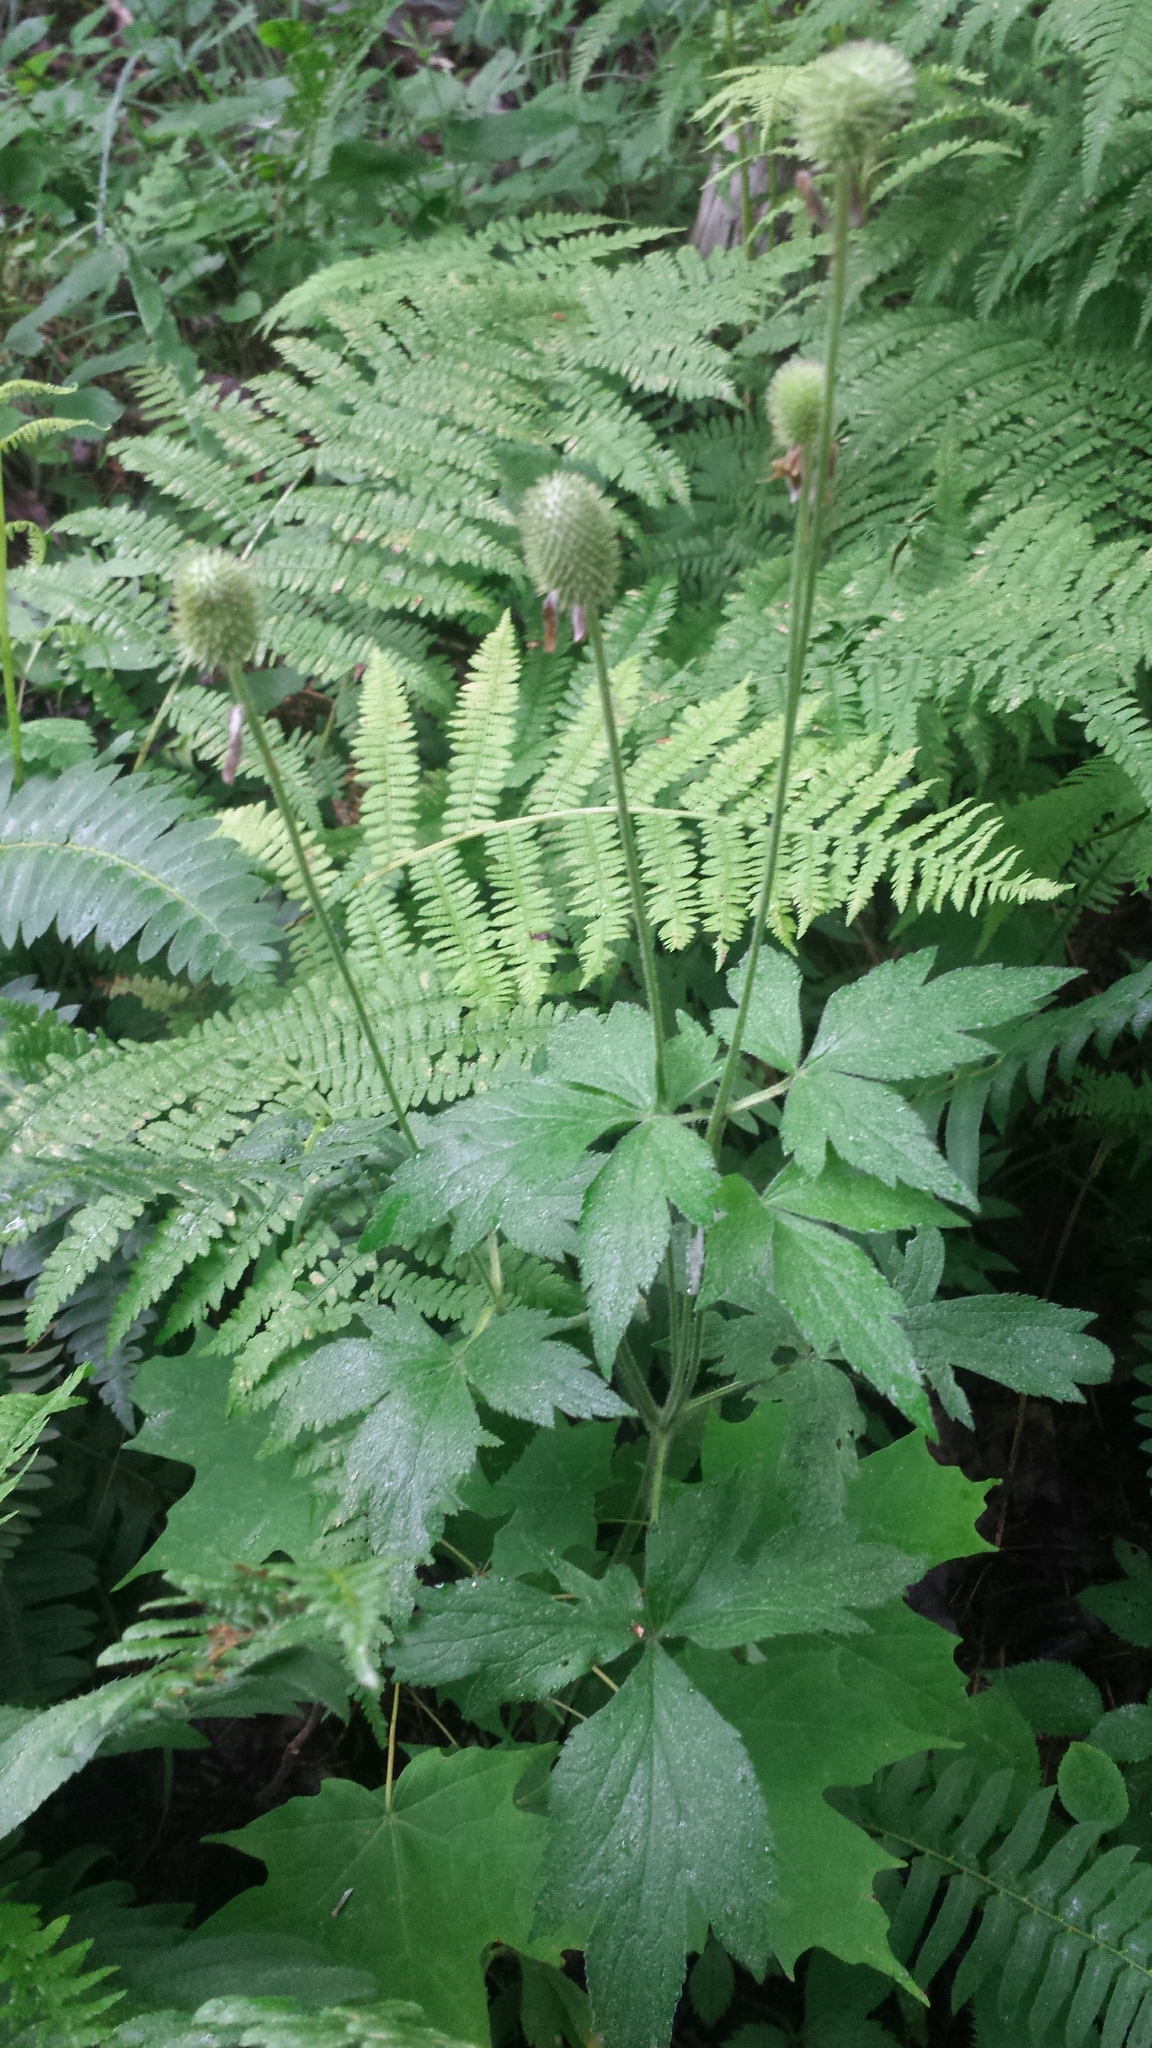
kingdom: Plantae
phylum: Tracheophyta
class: Magnoliopsida
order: Ranunculales
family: Ranunculaceae
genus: Anemone
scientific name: Anemone virginiana
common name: Tall anemone
